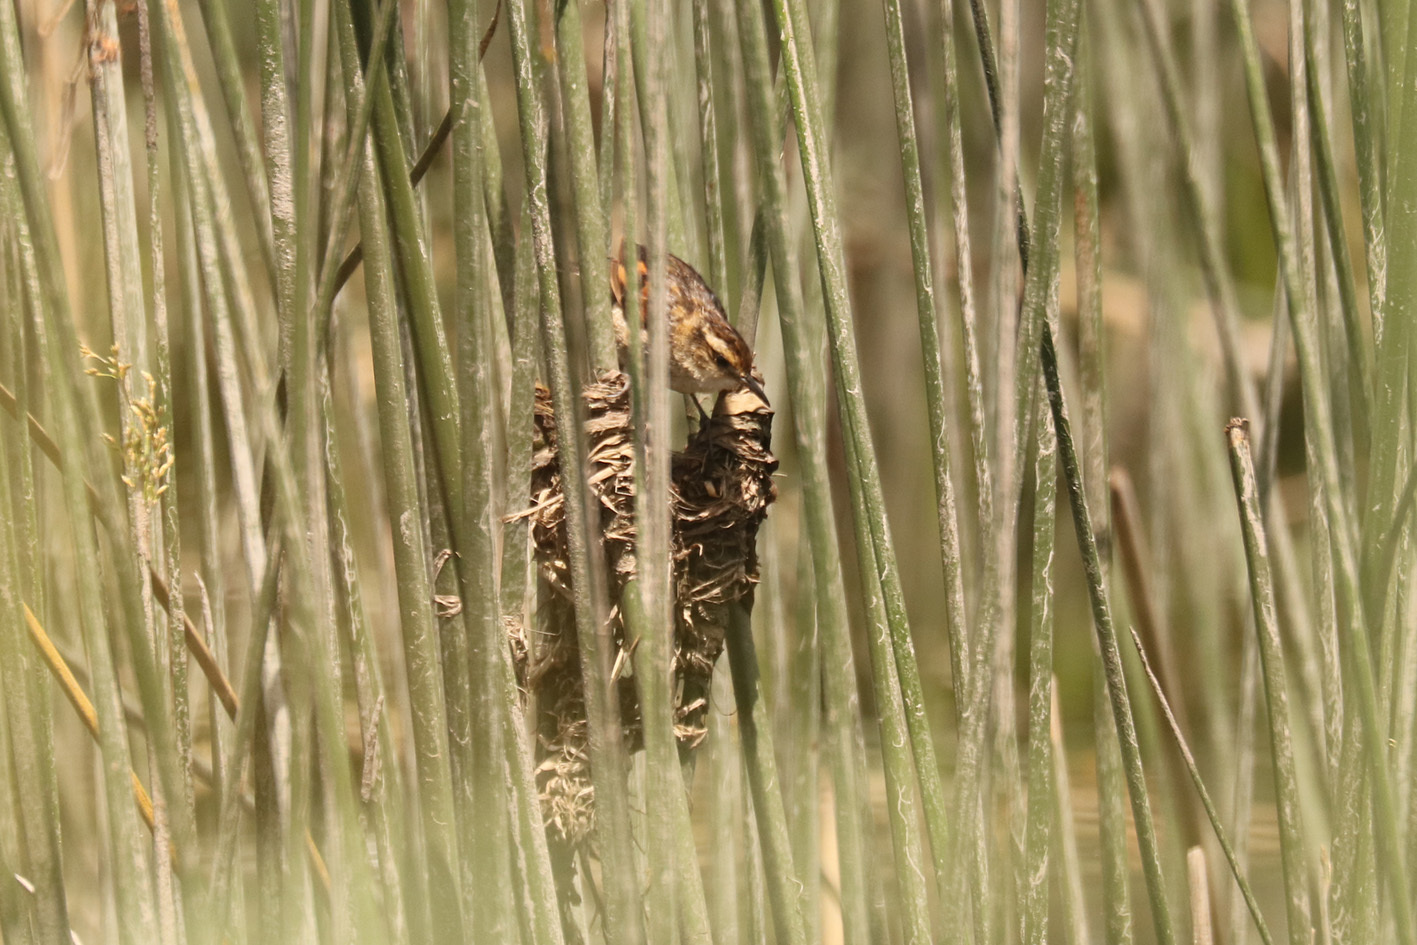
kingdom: Animalia
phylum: Chordata
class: Aves
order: Passeriformes
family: Furnariidae
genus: Phleocryptes
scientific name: Phleocryptes melanops
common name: Wren-like rushbird
